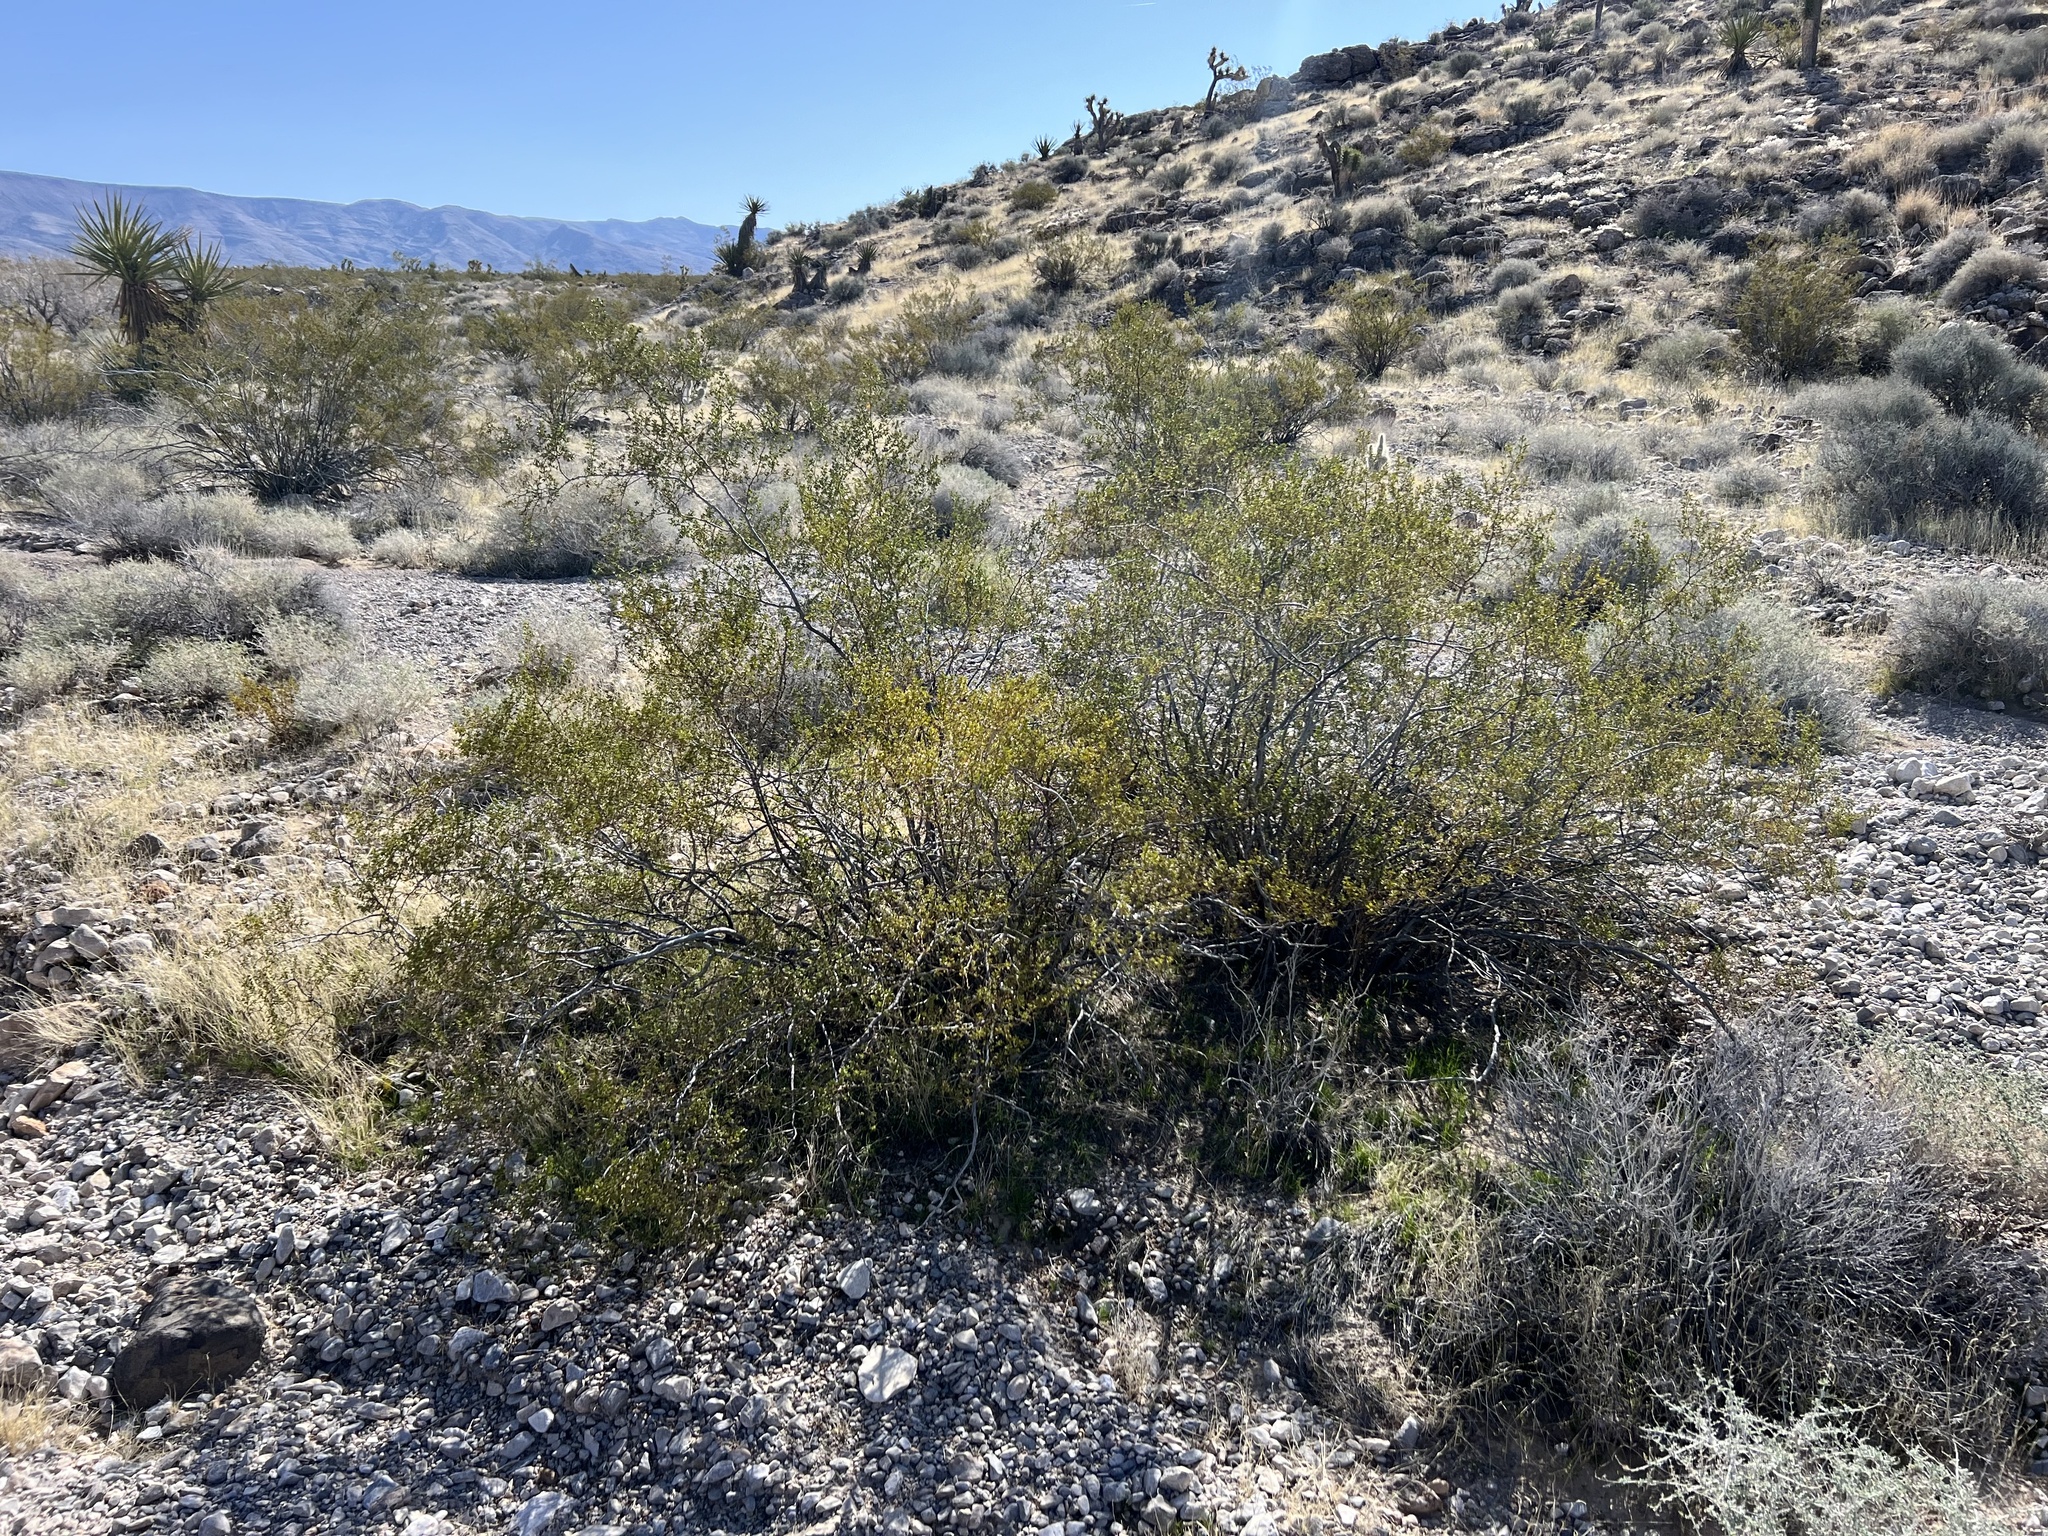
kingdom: Plantae
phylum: Tracheophyta
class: Magnoliopsida
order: Zygophyllales
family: Zygophyllaceae
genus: Larrea
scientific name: Larrea tridentata
